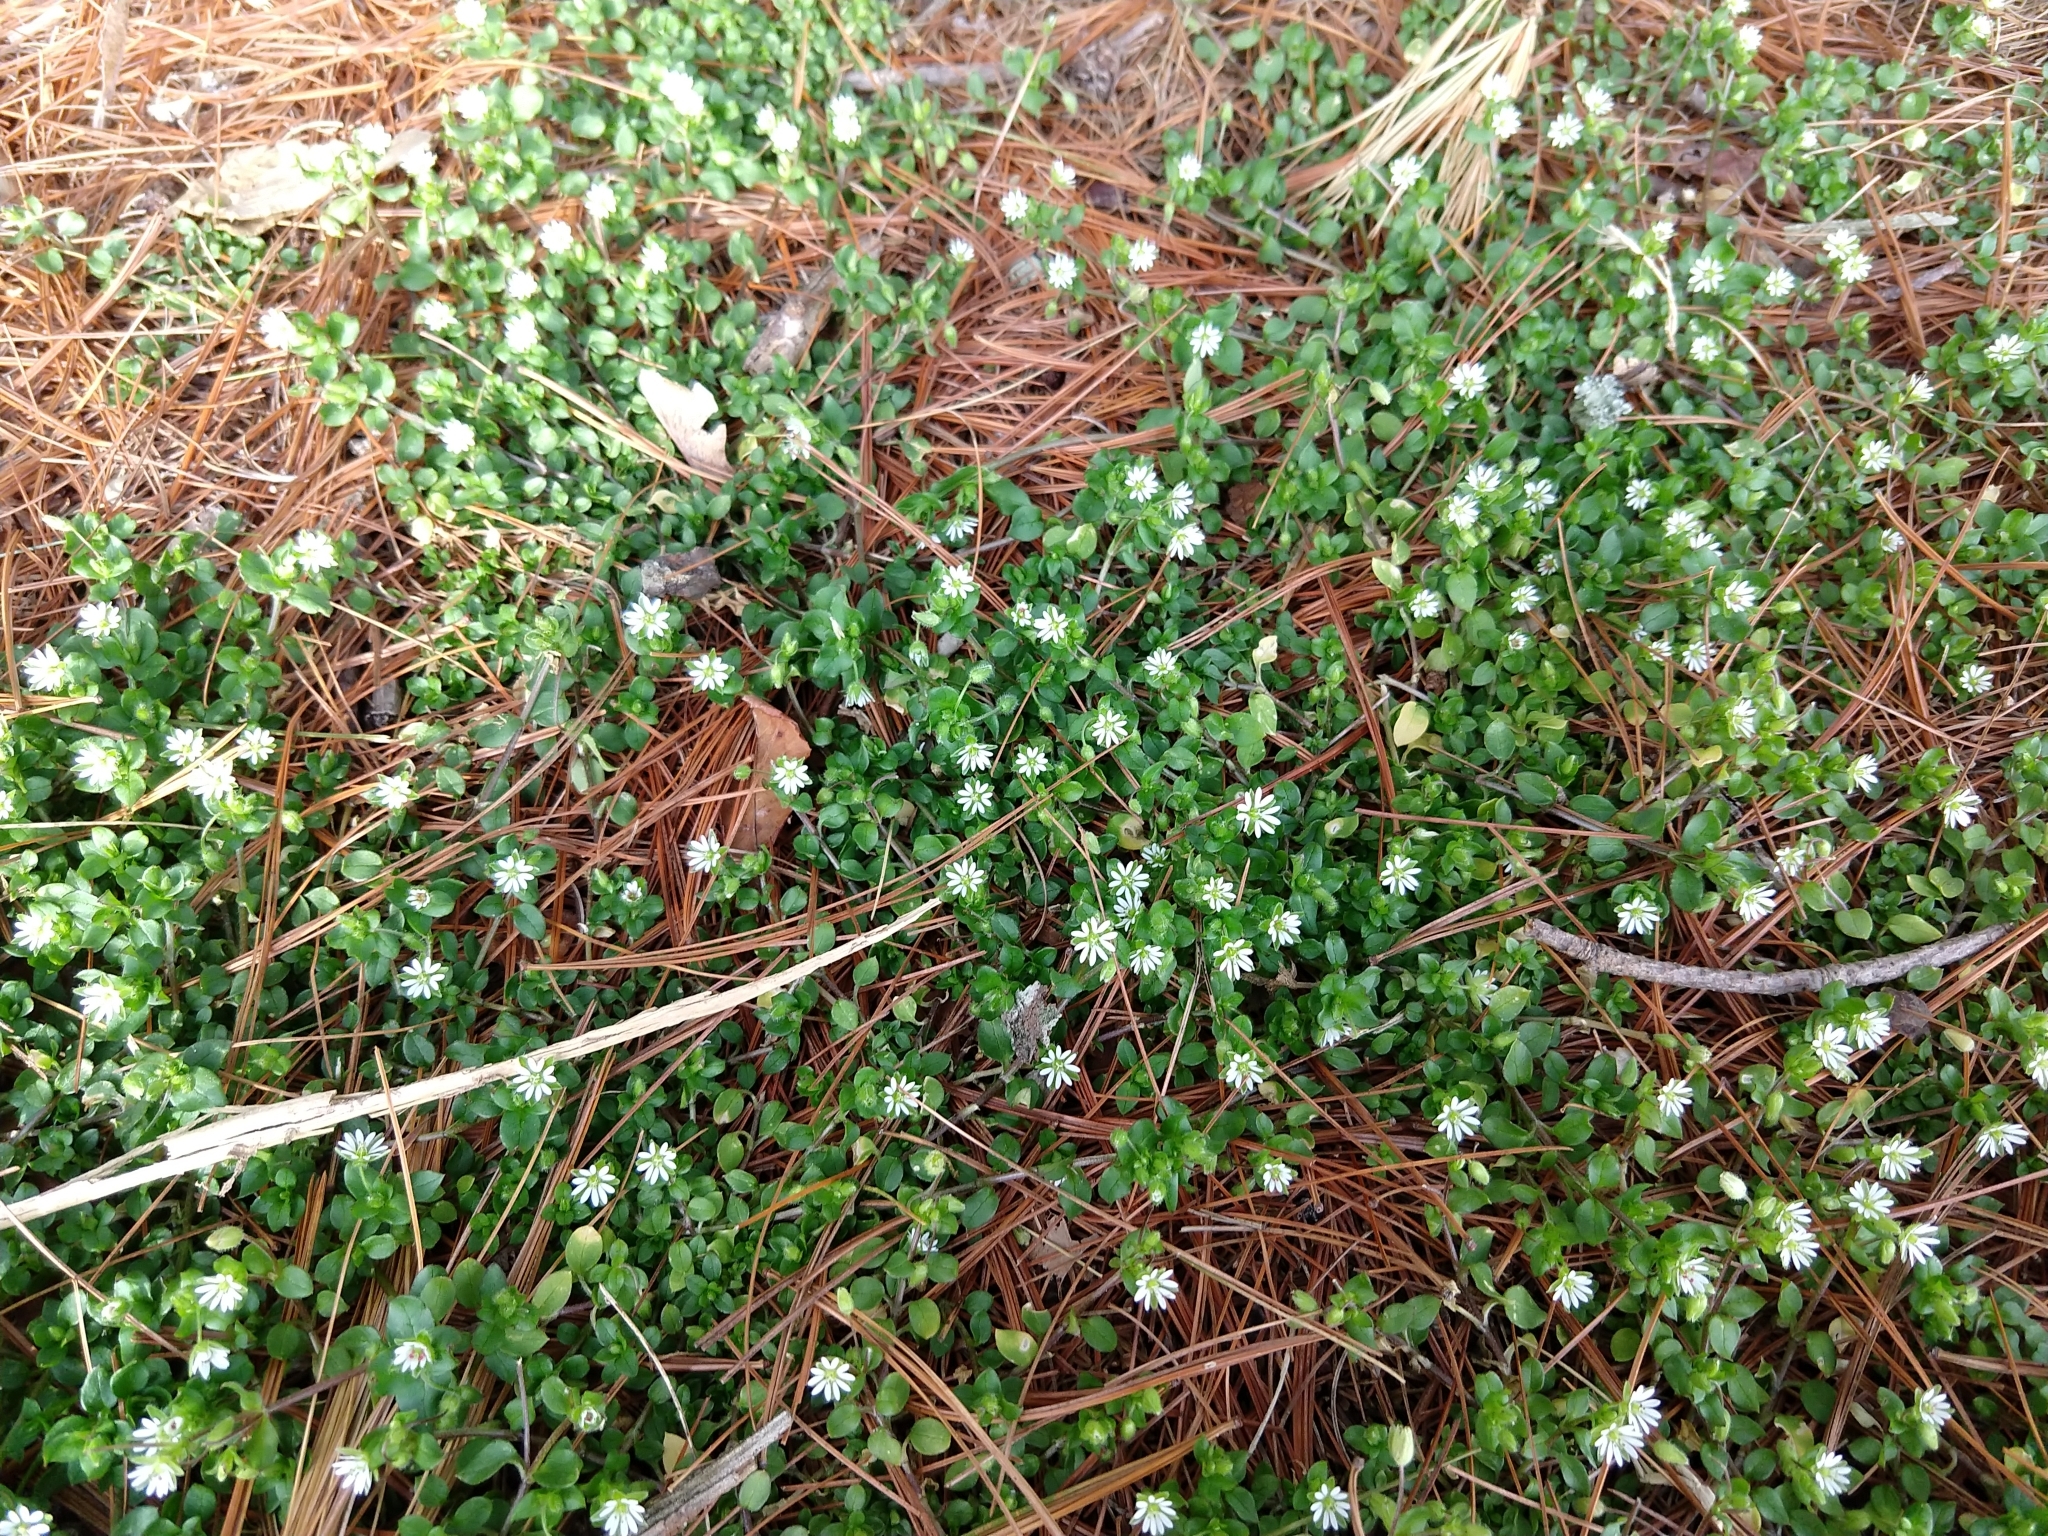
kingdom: Plantae
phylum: Tracheophyta
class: Magnoliopsida
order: Caryophyllales
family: Caryophyllaceae
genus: Stellaria
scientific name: Stellaria media
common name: Common chickweed
